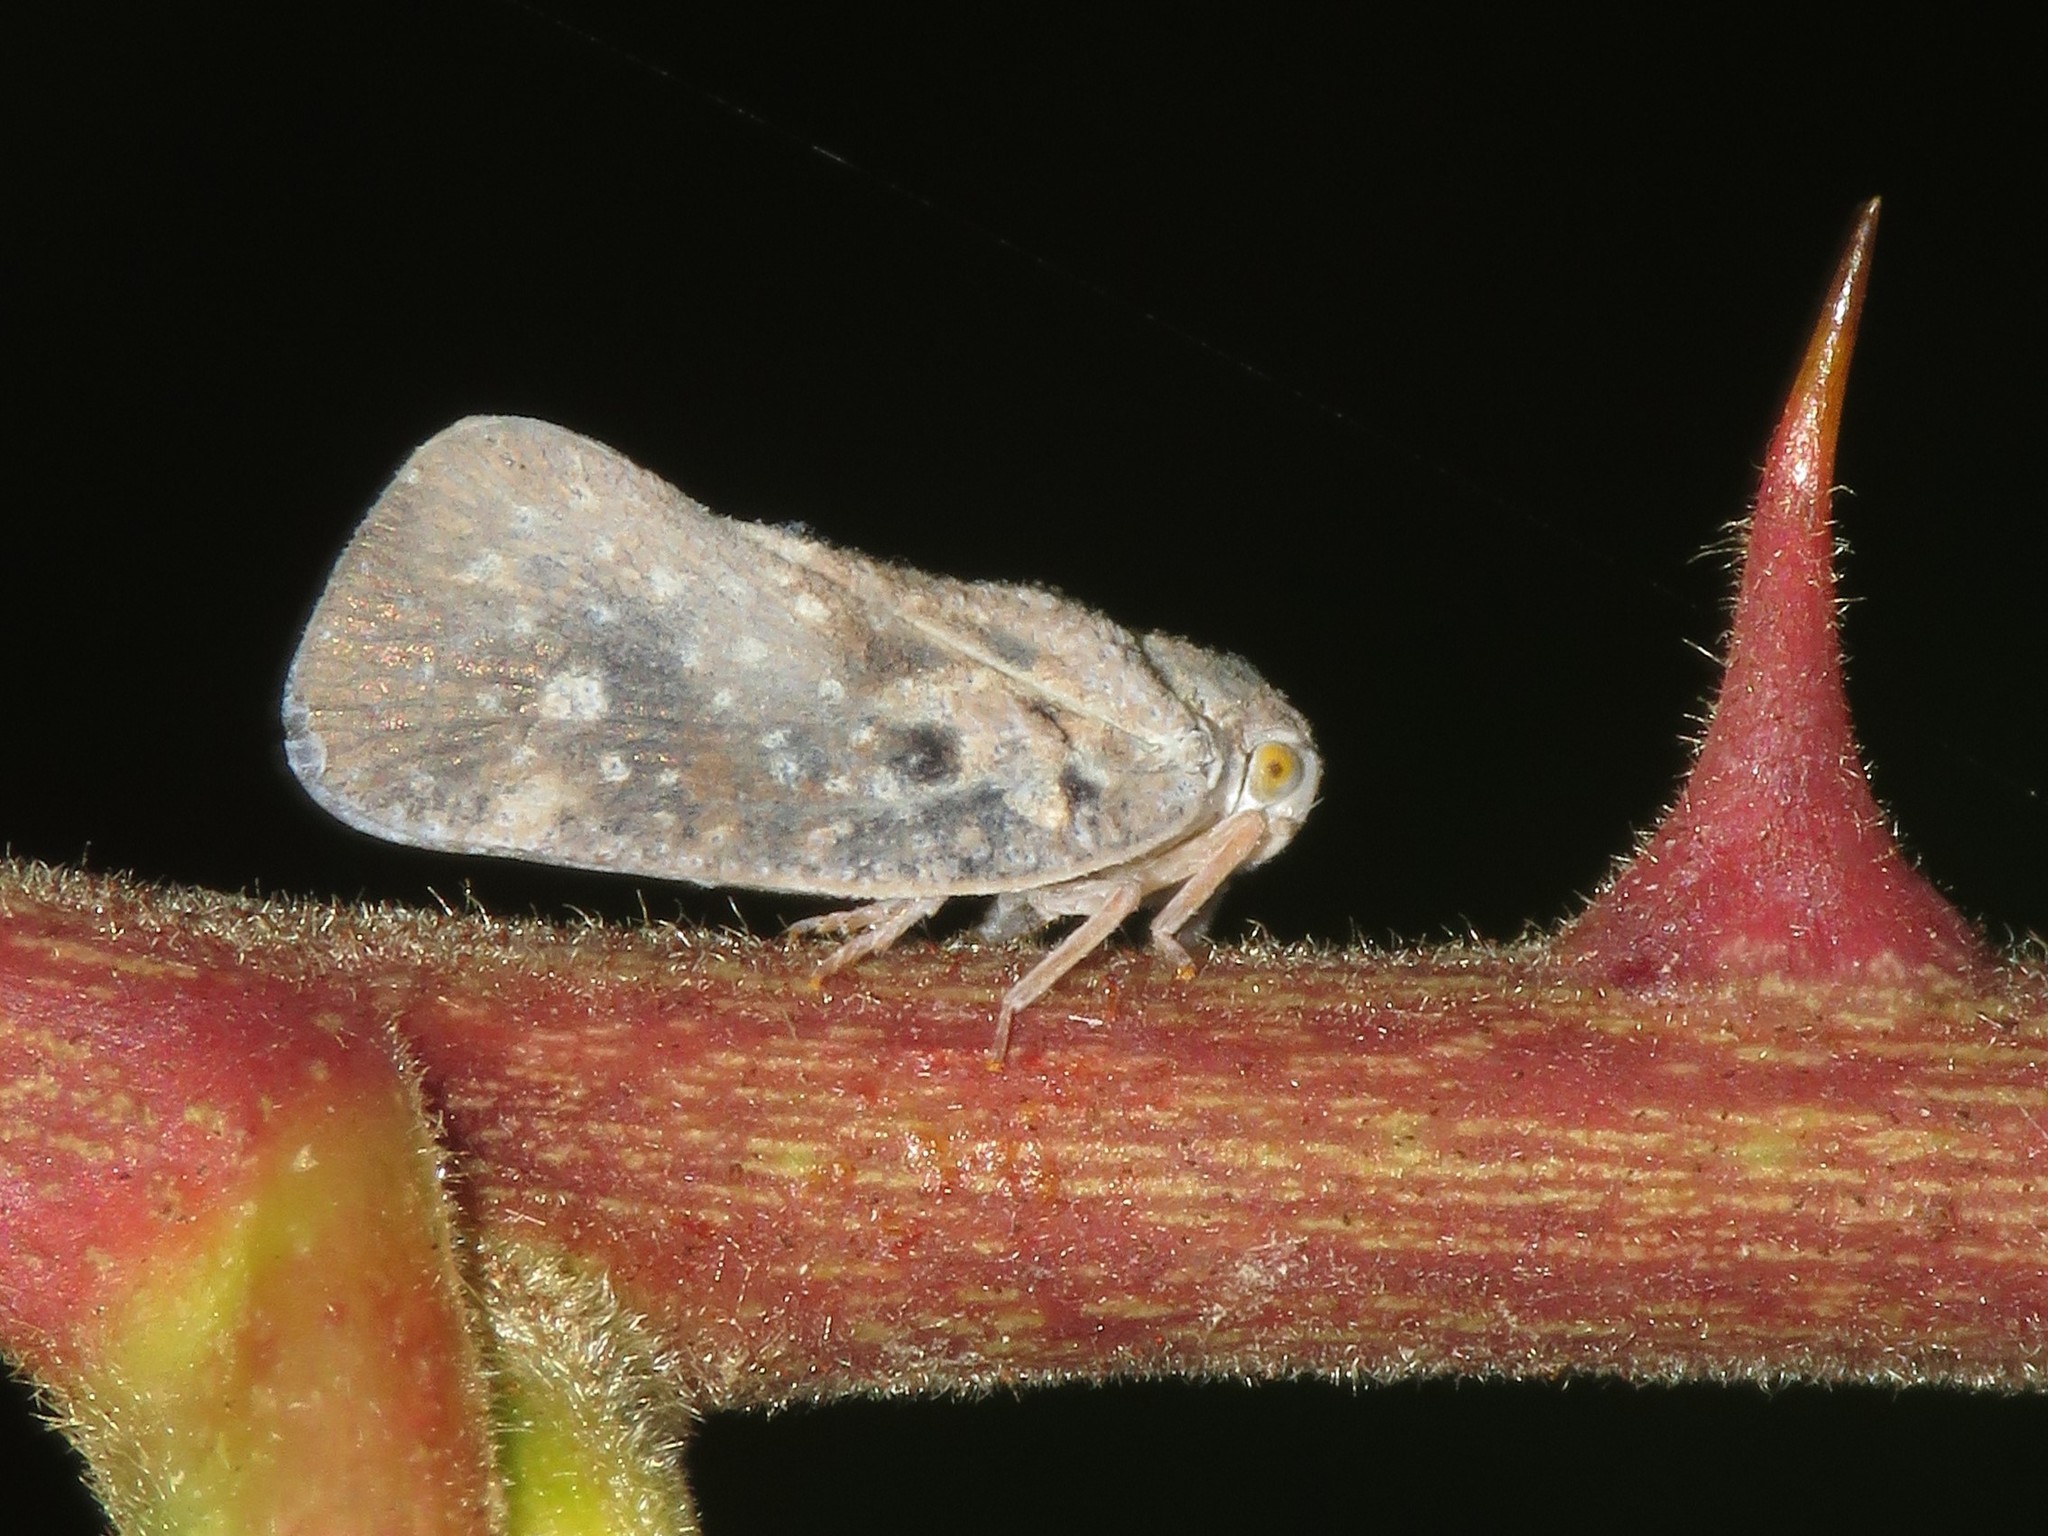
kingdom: Animalia
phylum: Arthropoda
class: Insecta
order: Hemiptera
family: Flatidae
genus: Metcalfa
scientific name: Metcalfa pruinosa
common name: Citrus flatid planthopper
